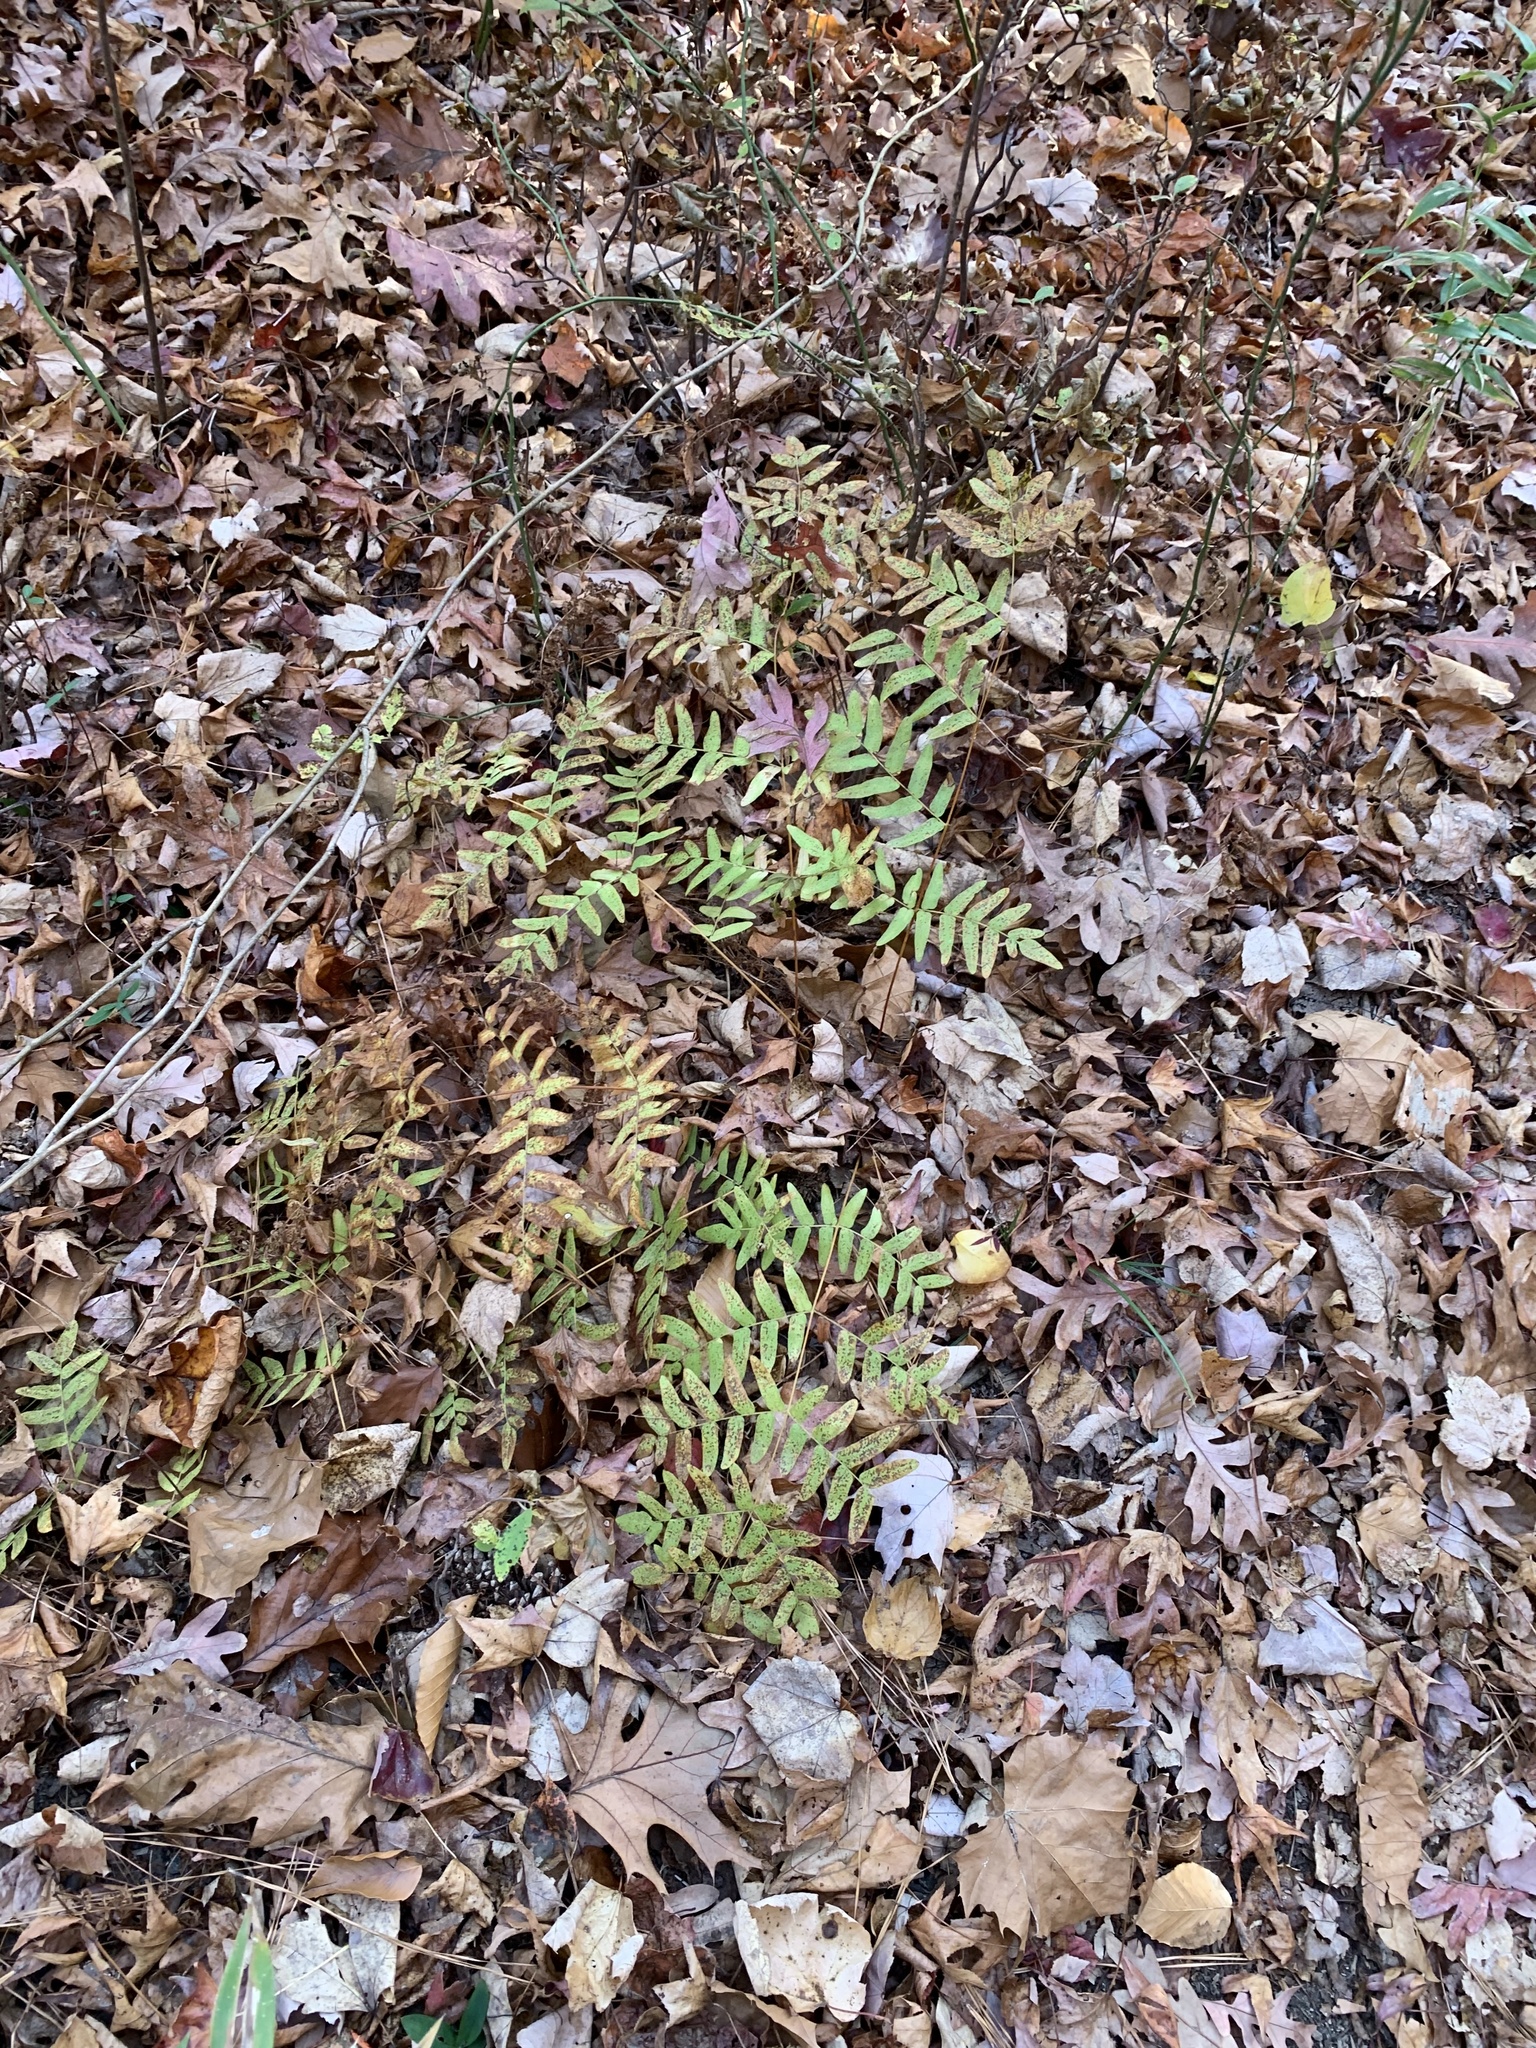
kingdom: Plantae
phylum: Tracheophyta
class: Polypodiopsida
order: Osmundales
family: Osmundaceae
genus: Osmunda
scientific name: Osmunda spectabilis
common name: American royal fern
